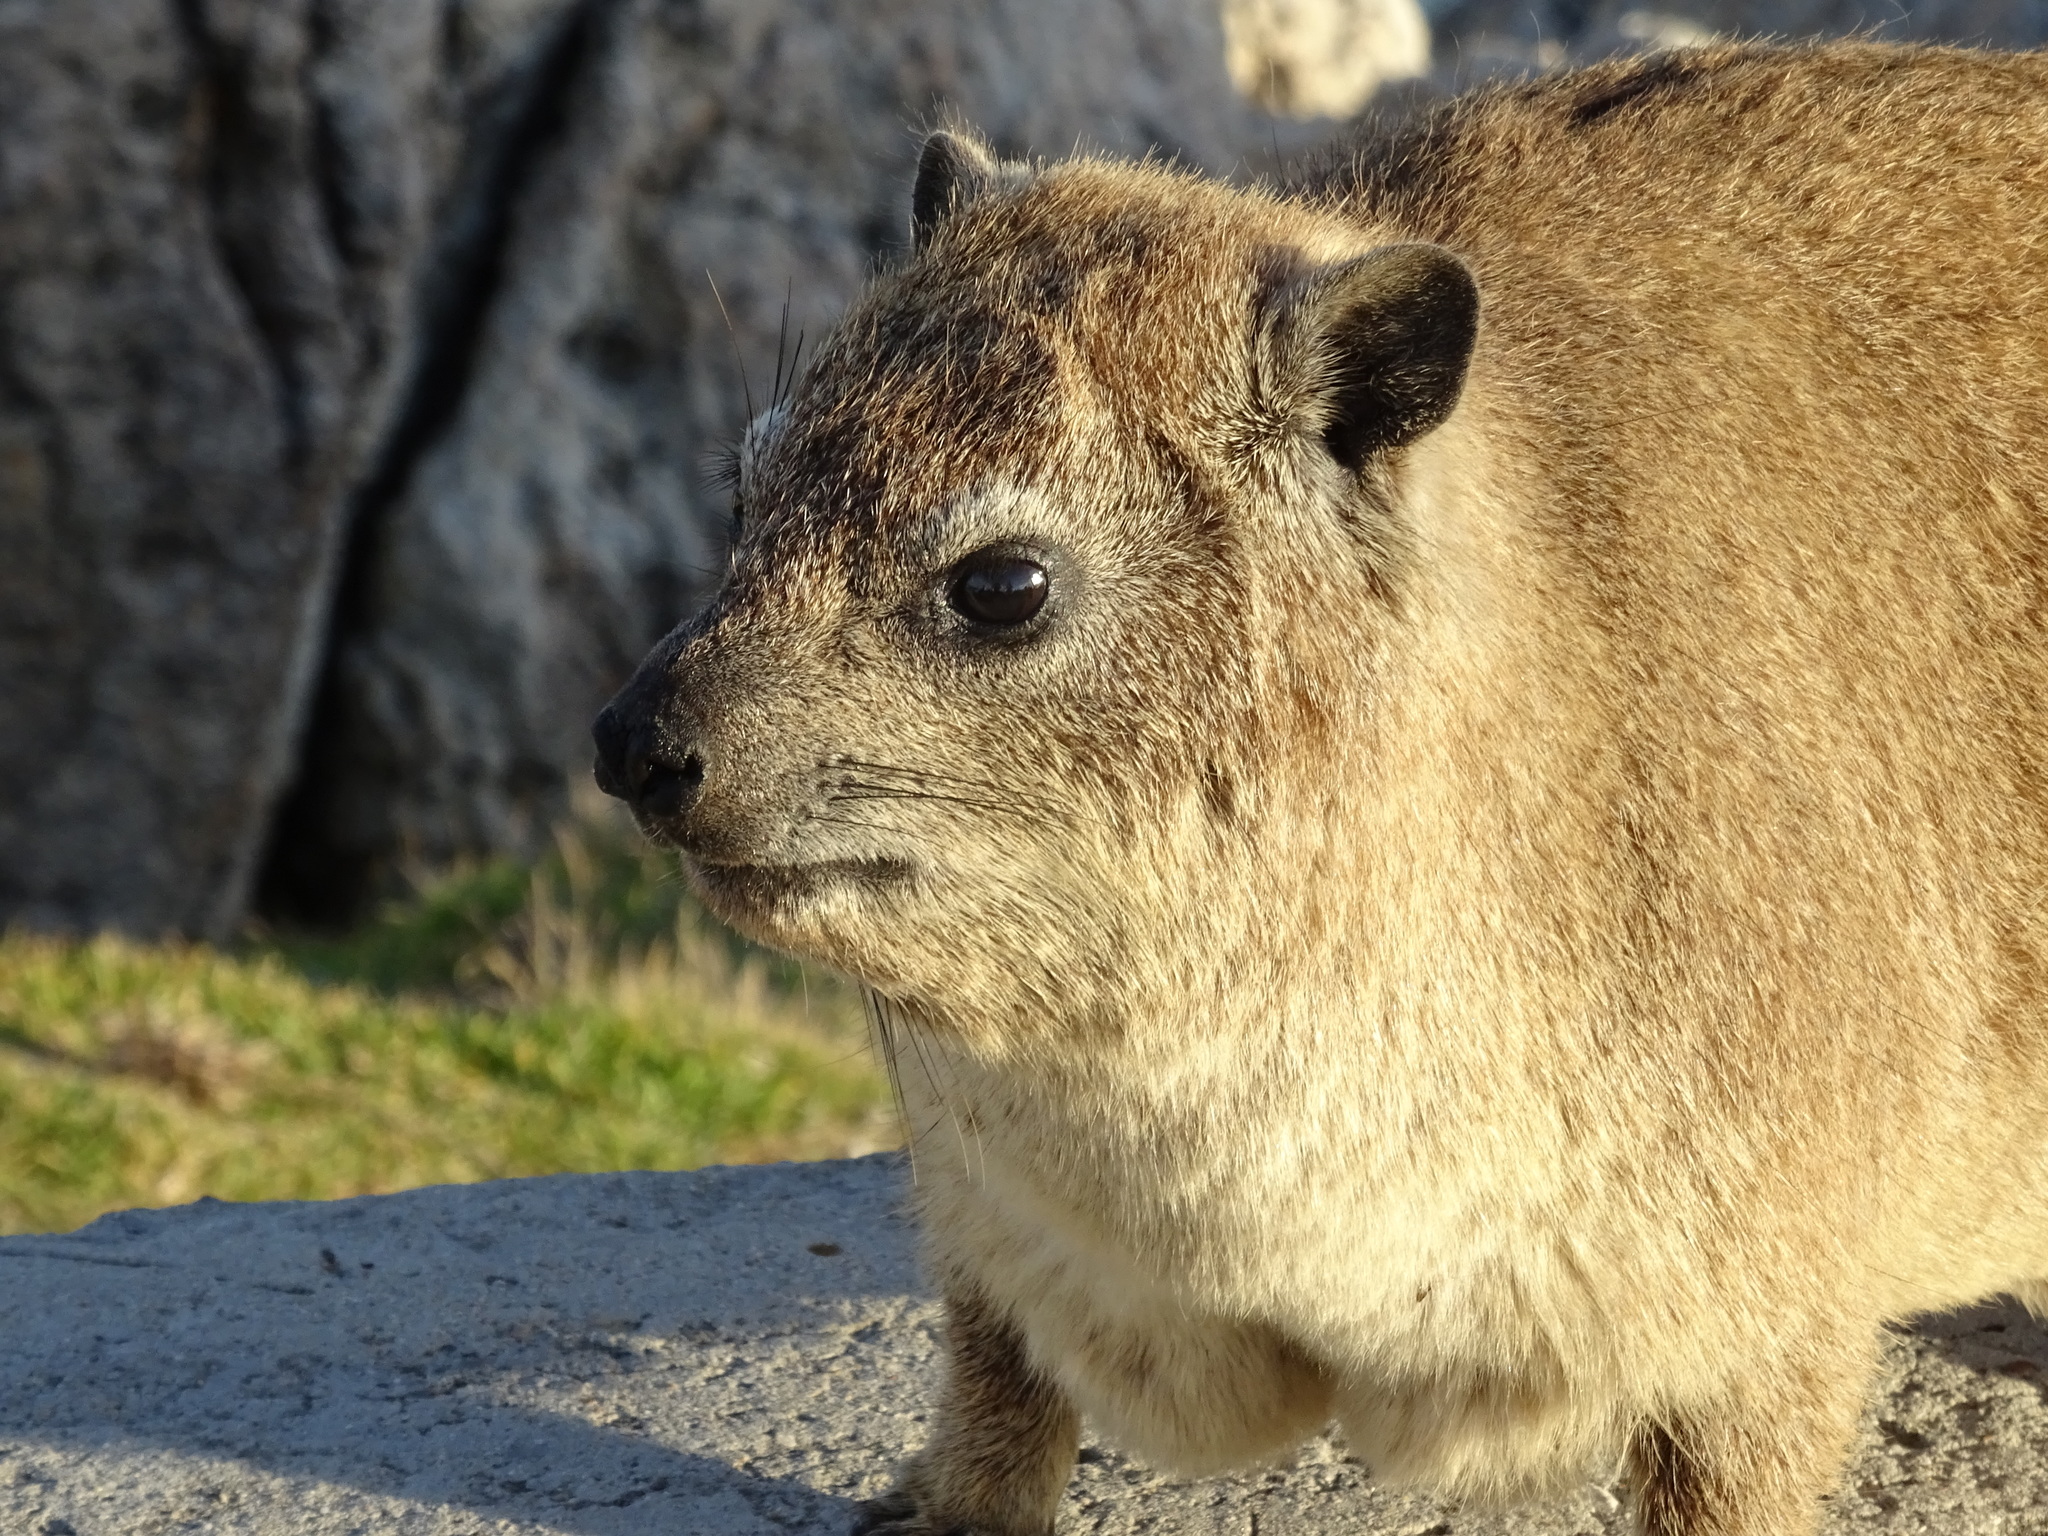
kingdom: Animalia
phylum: Chordata
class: Mammalia
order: Hyracoidea
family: Procaviidae
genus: Procavia
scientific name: Procavia capensis
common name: Rock hyrax
